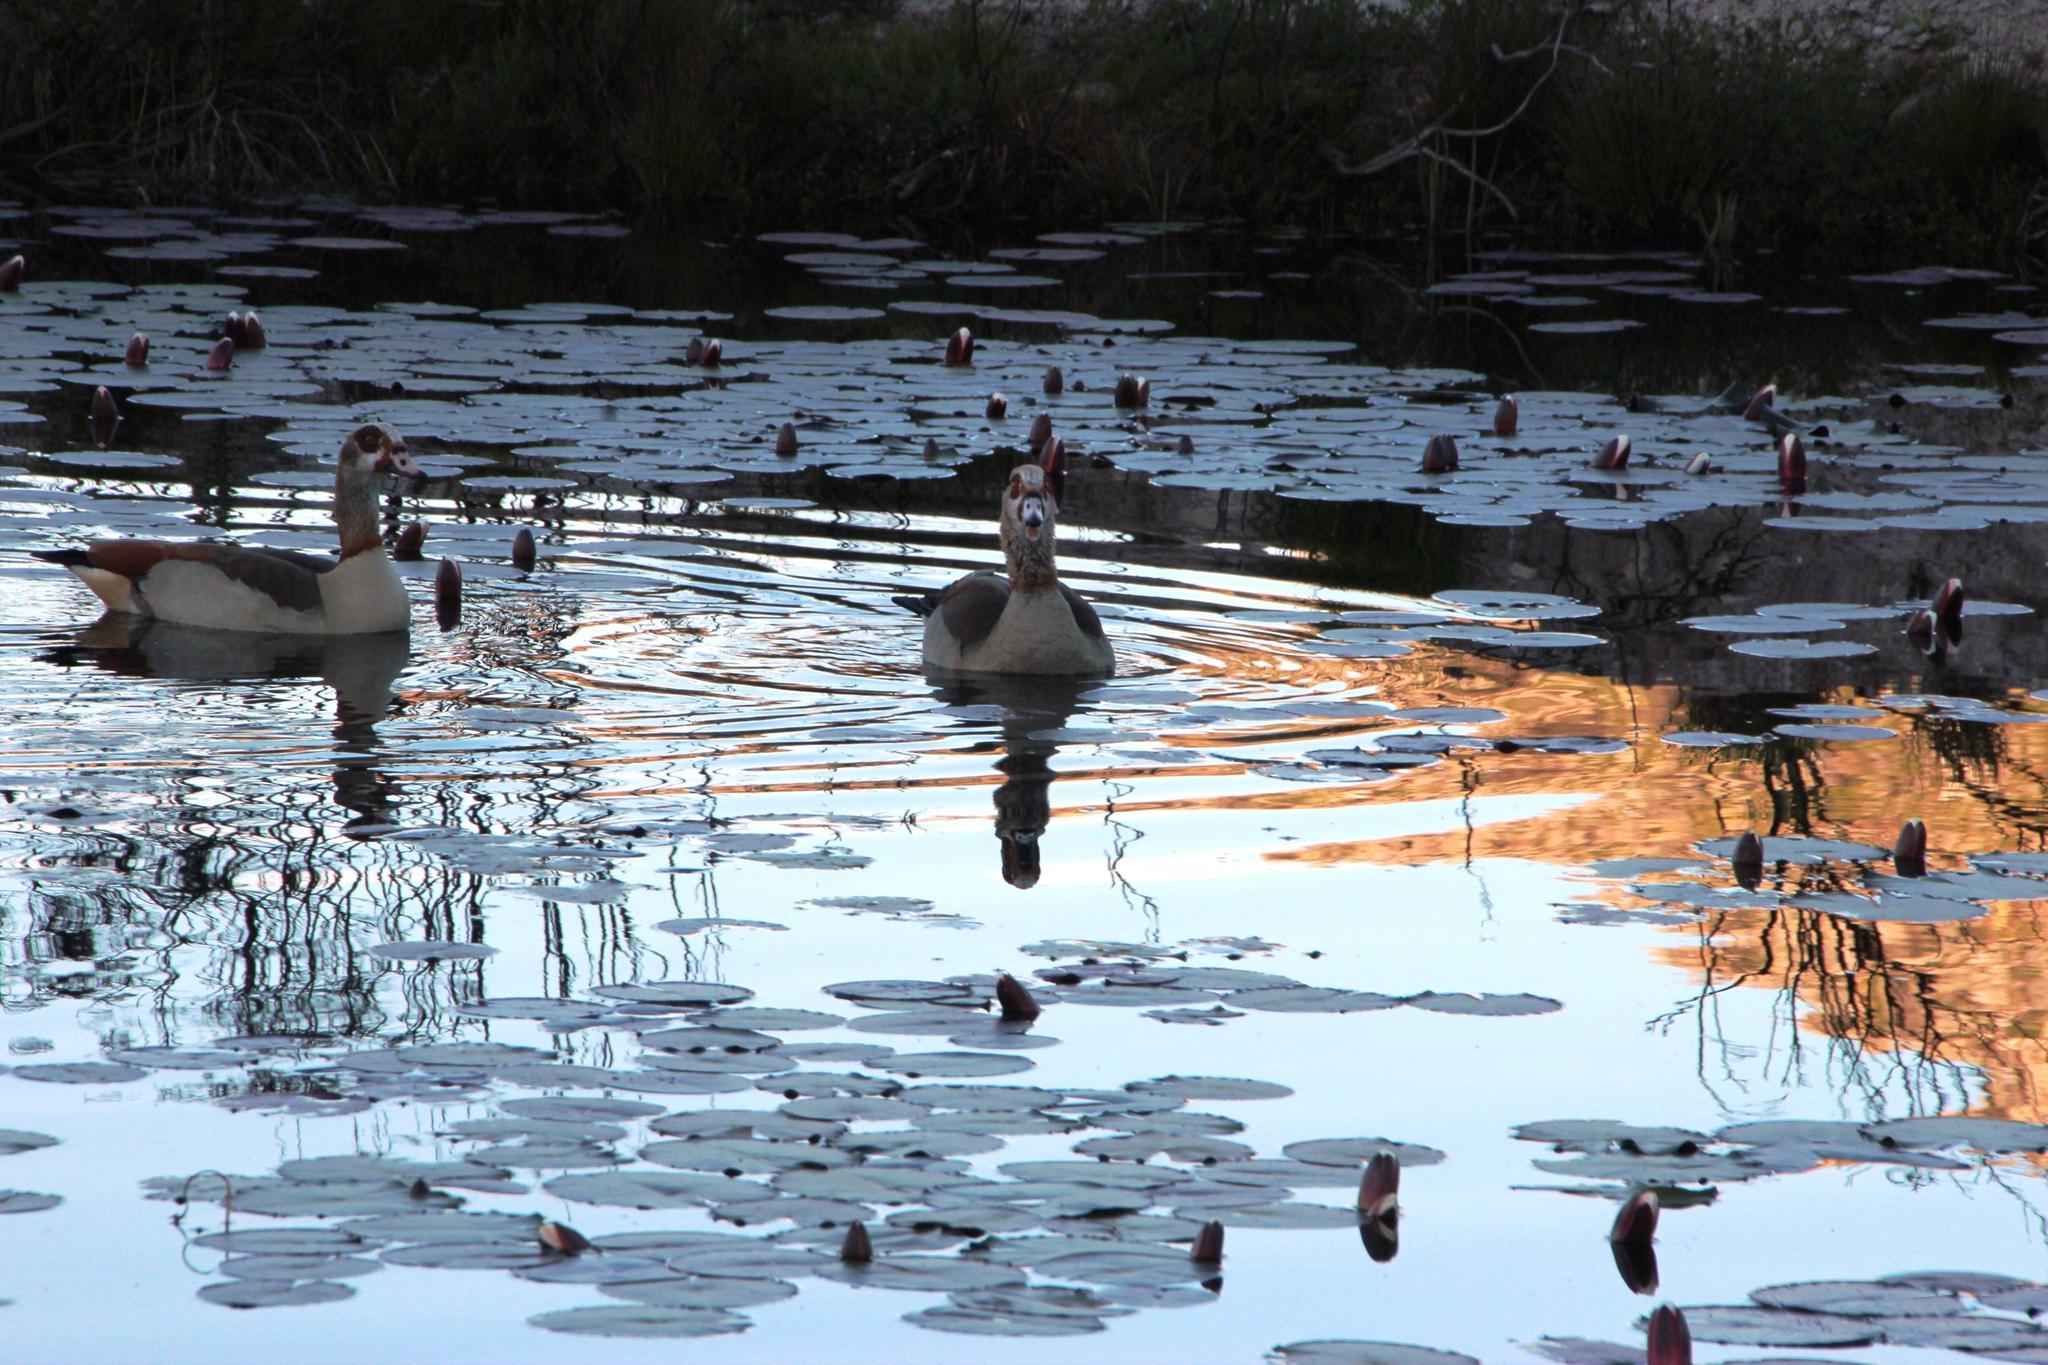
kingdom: Animalia
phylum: Chordata
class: Aves
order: Anseriformes
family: Anatidae
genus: Alopochen
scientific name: Alopochen aegyptiaca
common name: Egyptian goose
